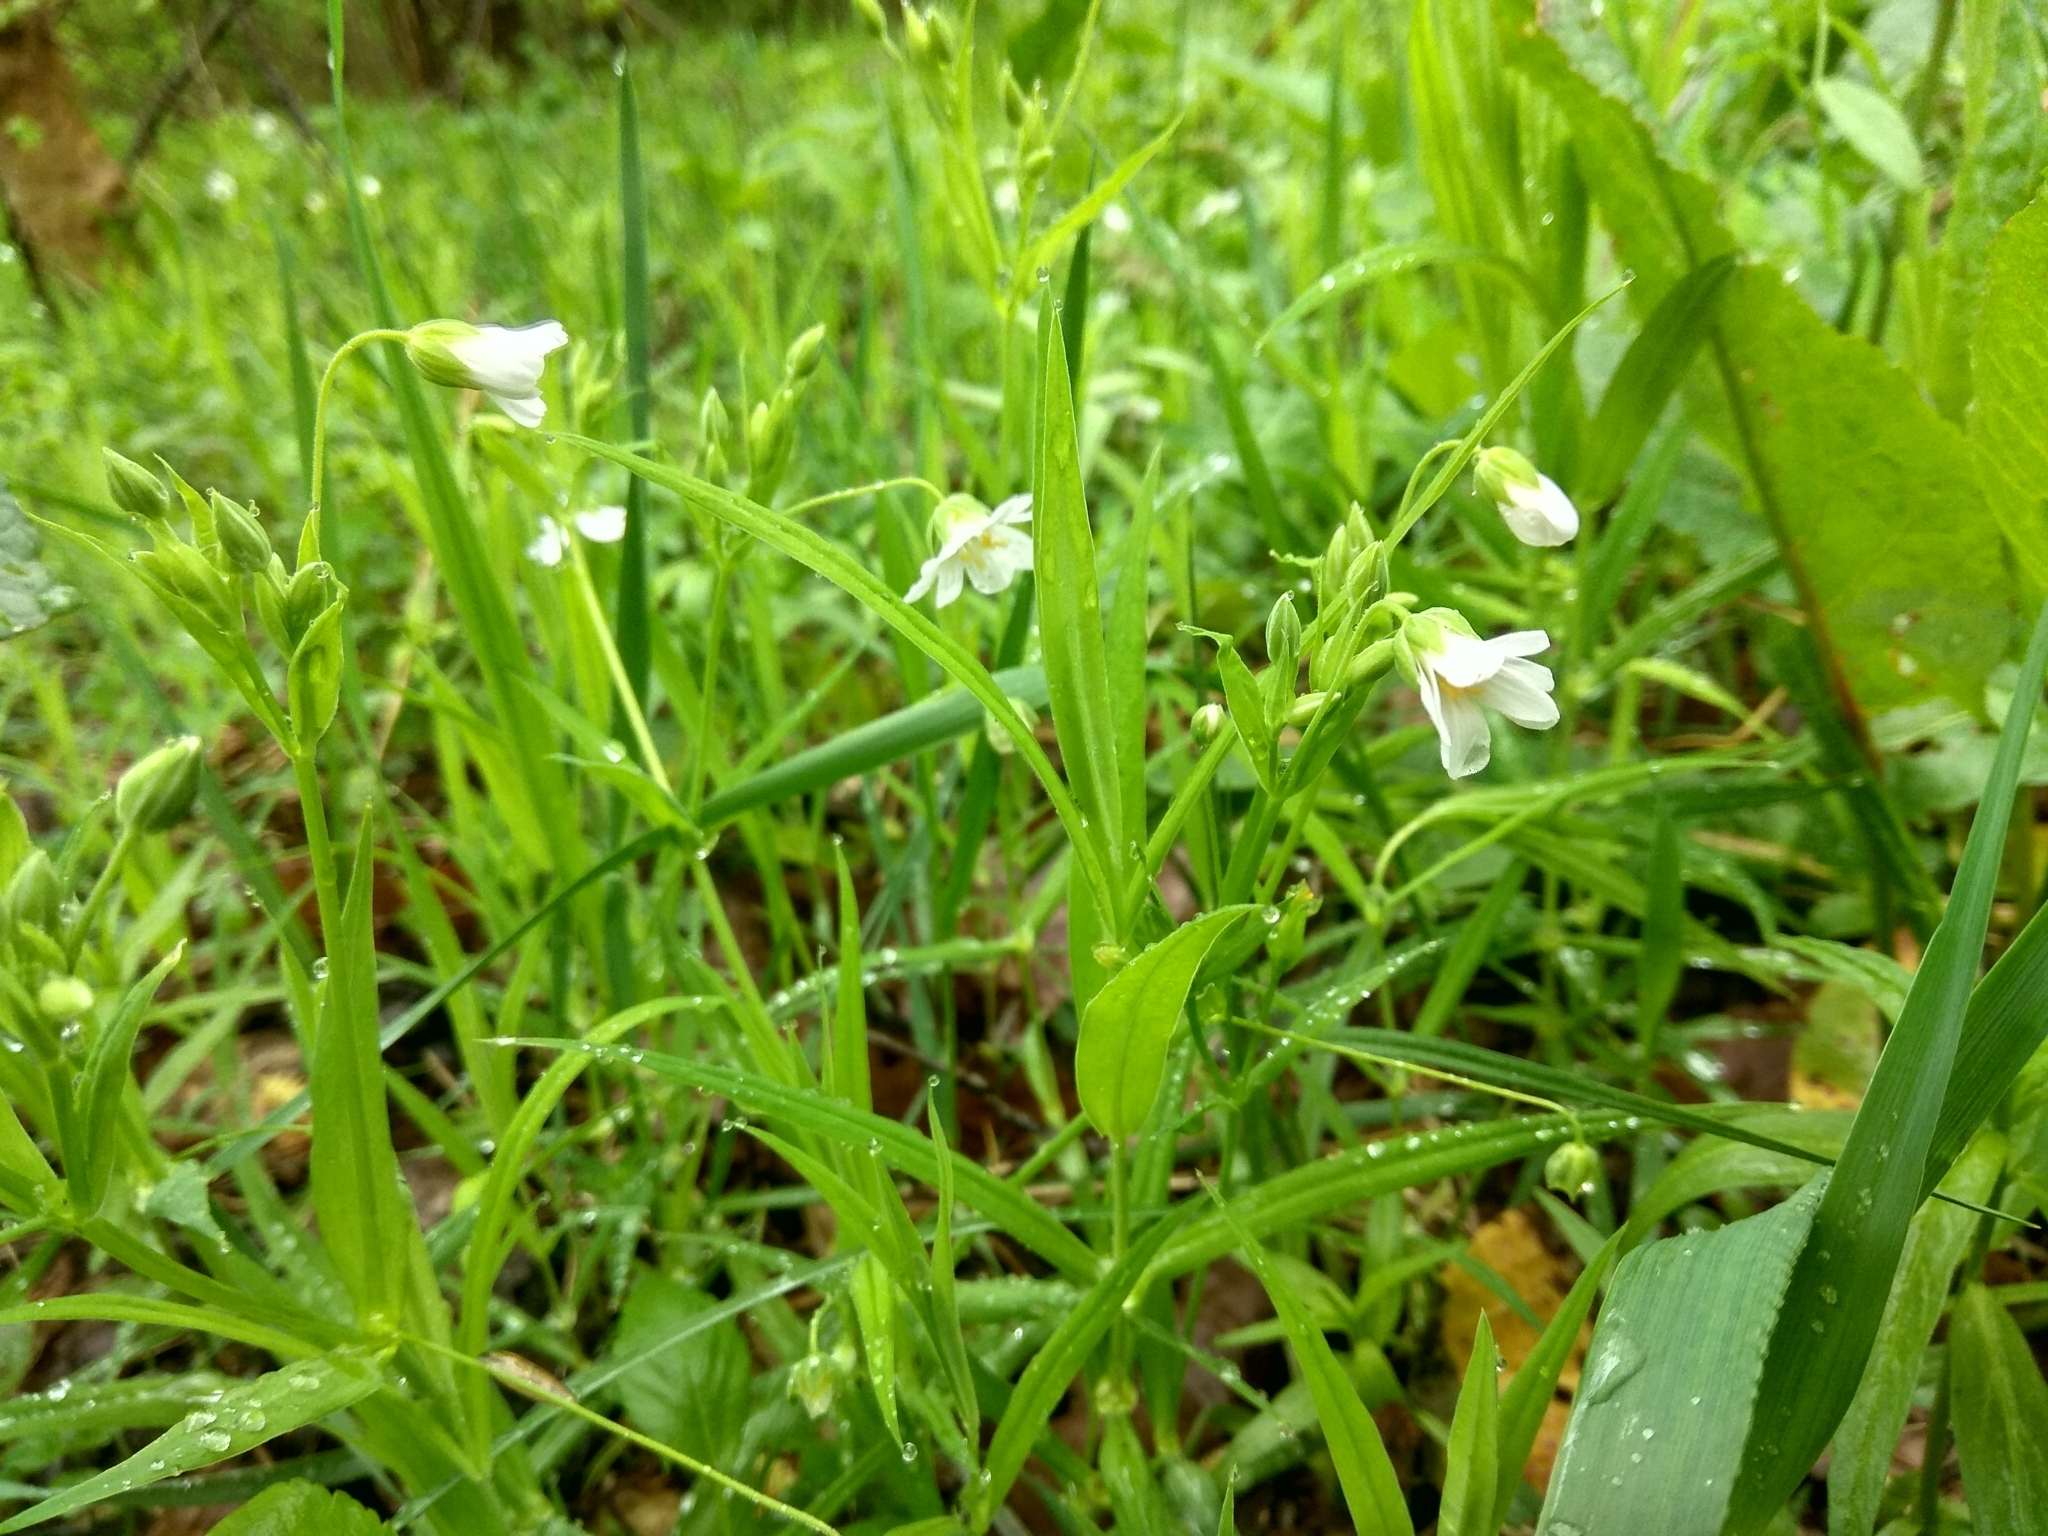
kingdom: Plantae
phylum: Tracheophyta
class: Magnoliopsida
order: Caryophyllales
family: Caryophyllaceae
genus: Rabelera
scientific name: Rabelera holostea
